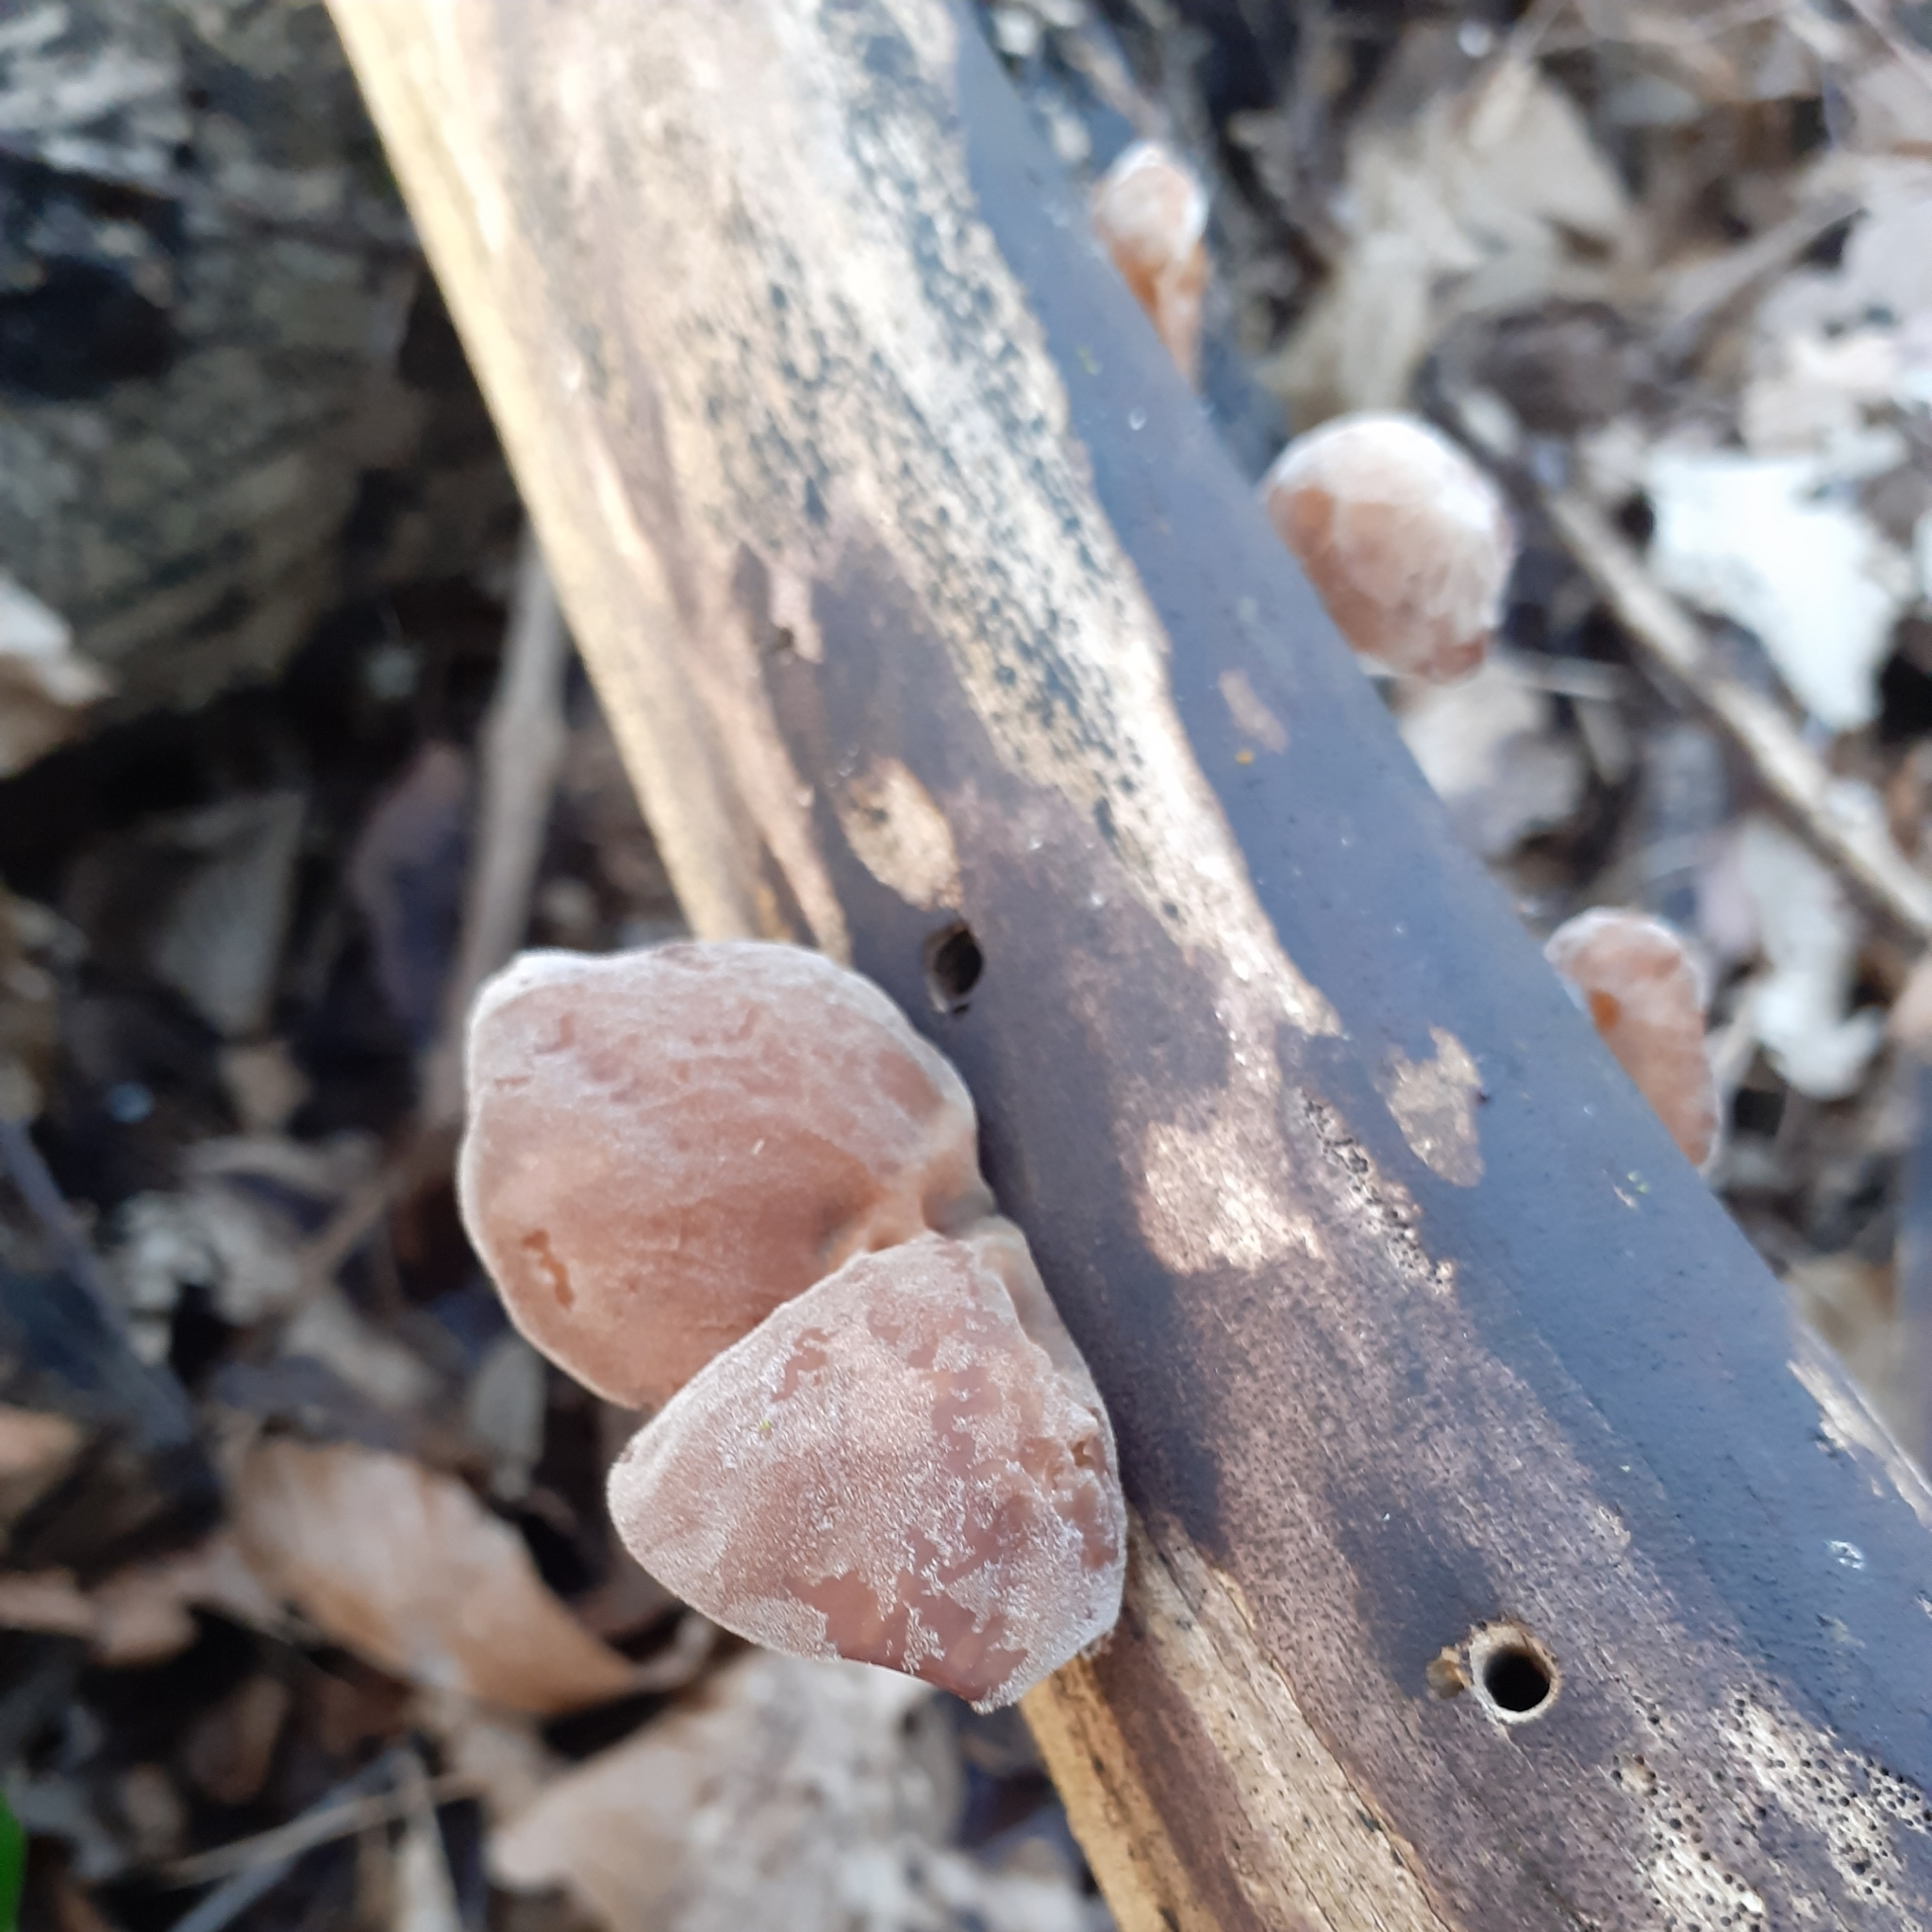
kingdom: Fungi
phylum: Basidiomycota
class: Agaricomycetes
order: Auriculariales
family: Auriculariaceae
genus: Auricularia
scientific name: Auricularia auricula-judae
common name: Jelly ear
